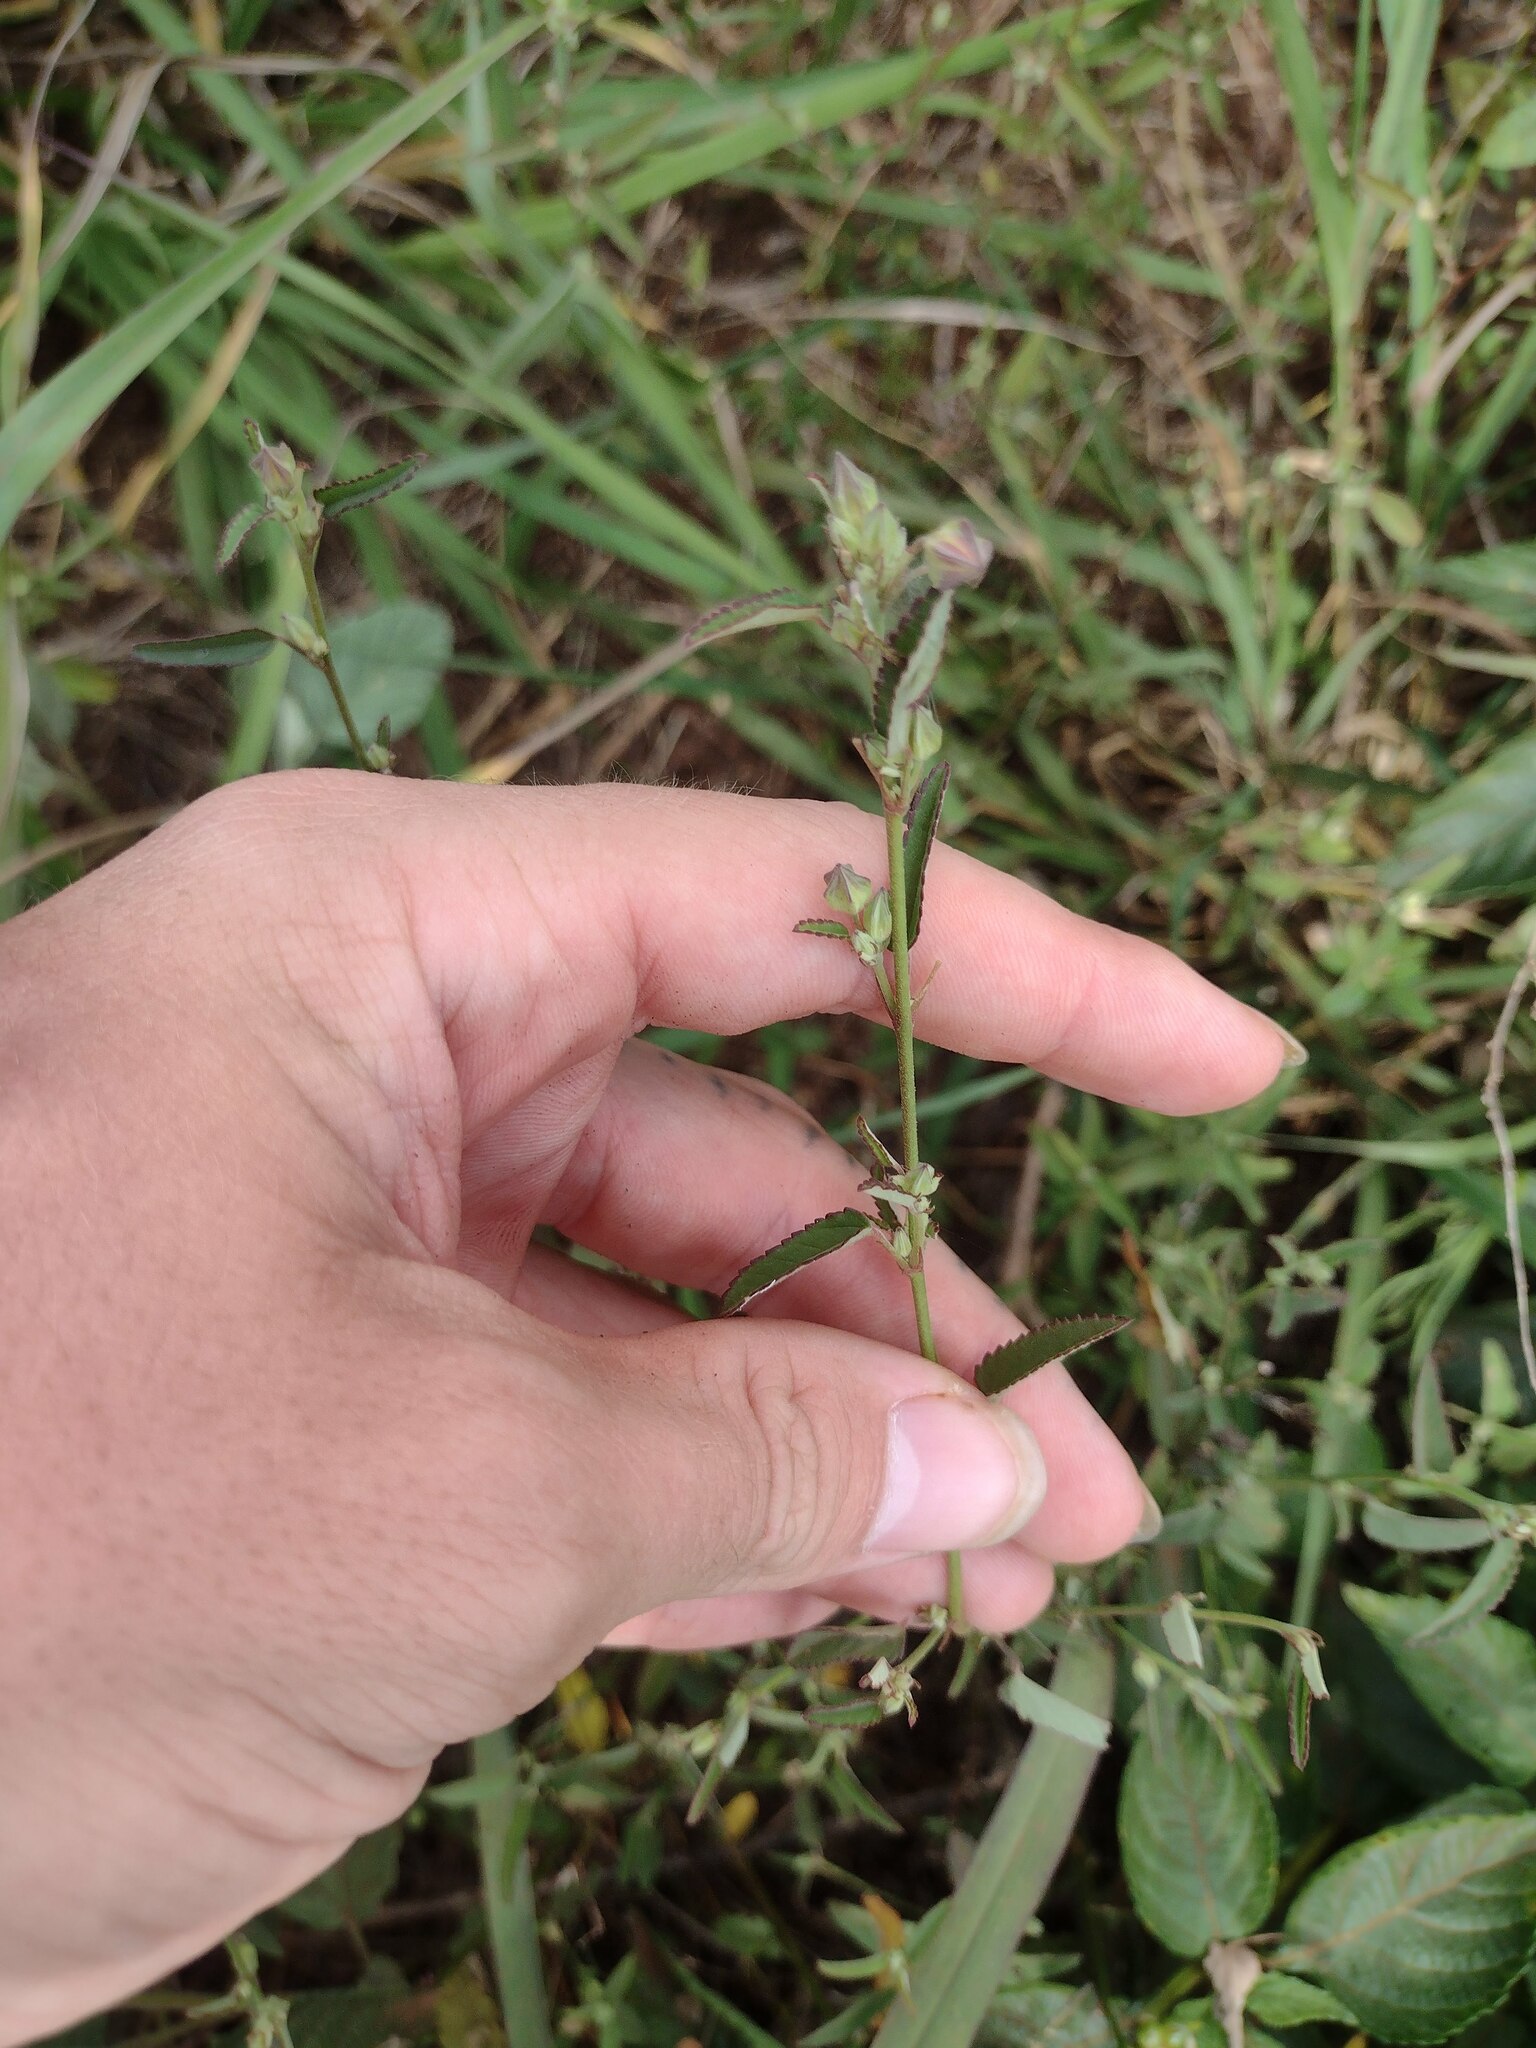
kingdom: Plantae
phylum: Tracheophyta
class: Magnoliopsida
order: Malvales
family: Malvaceae
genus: Sida
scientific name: Sida spinosa
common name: Prickly fanpetals
